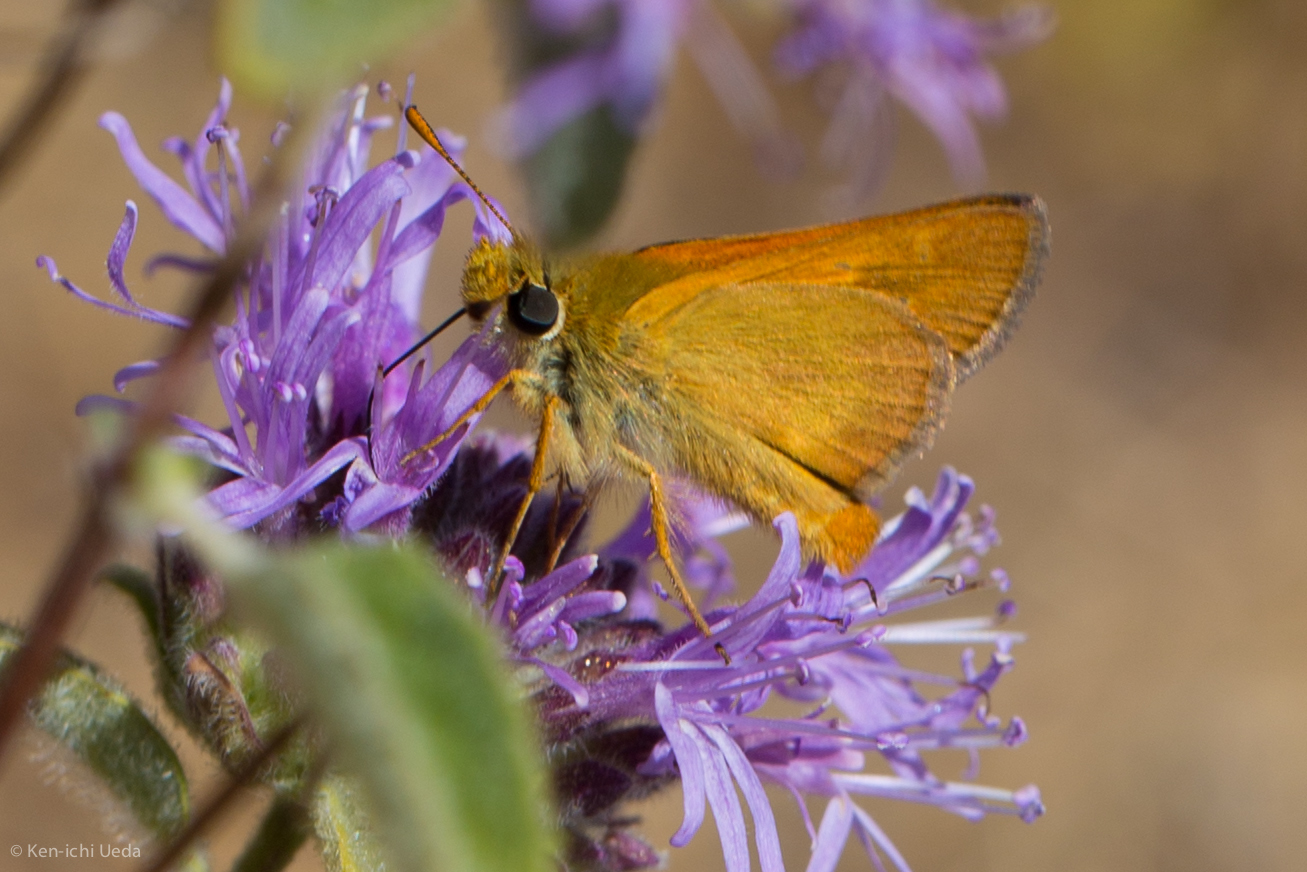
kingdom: Animalia
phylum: Arthropoda
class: Insecta
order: Lepidoptera
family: Hesperiidae
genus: Ochlodes
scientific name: Ochlodes agricola
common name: Rural skipper
